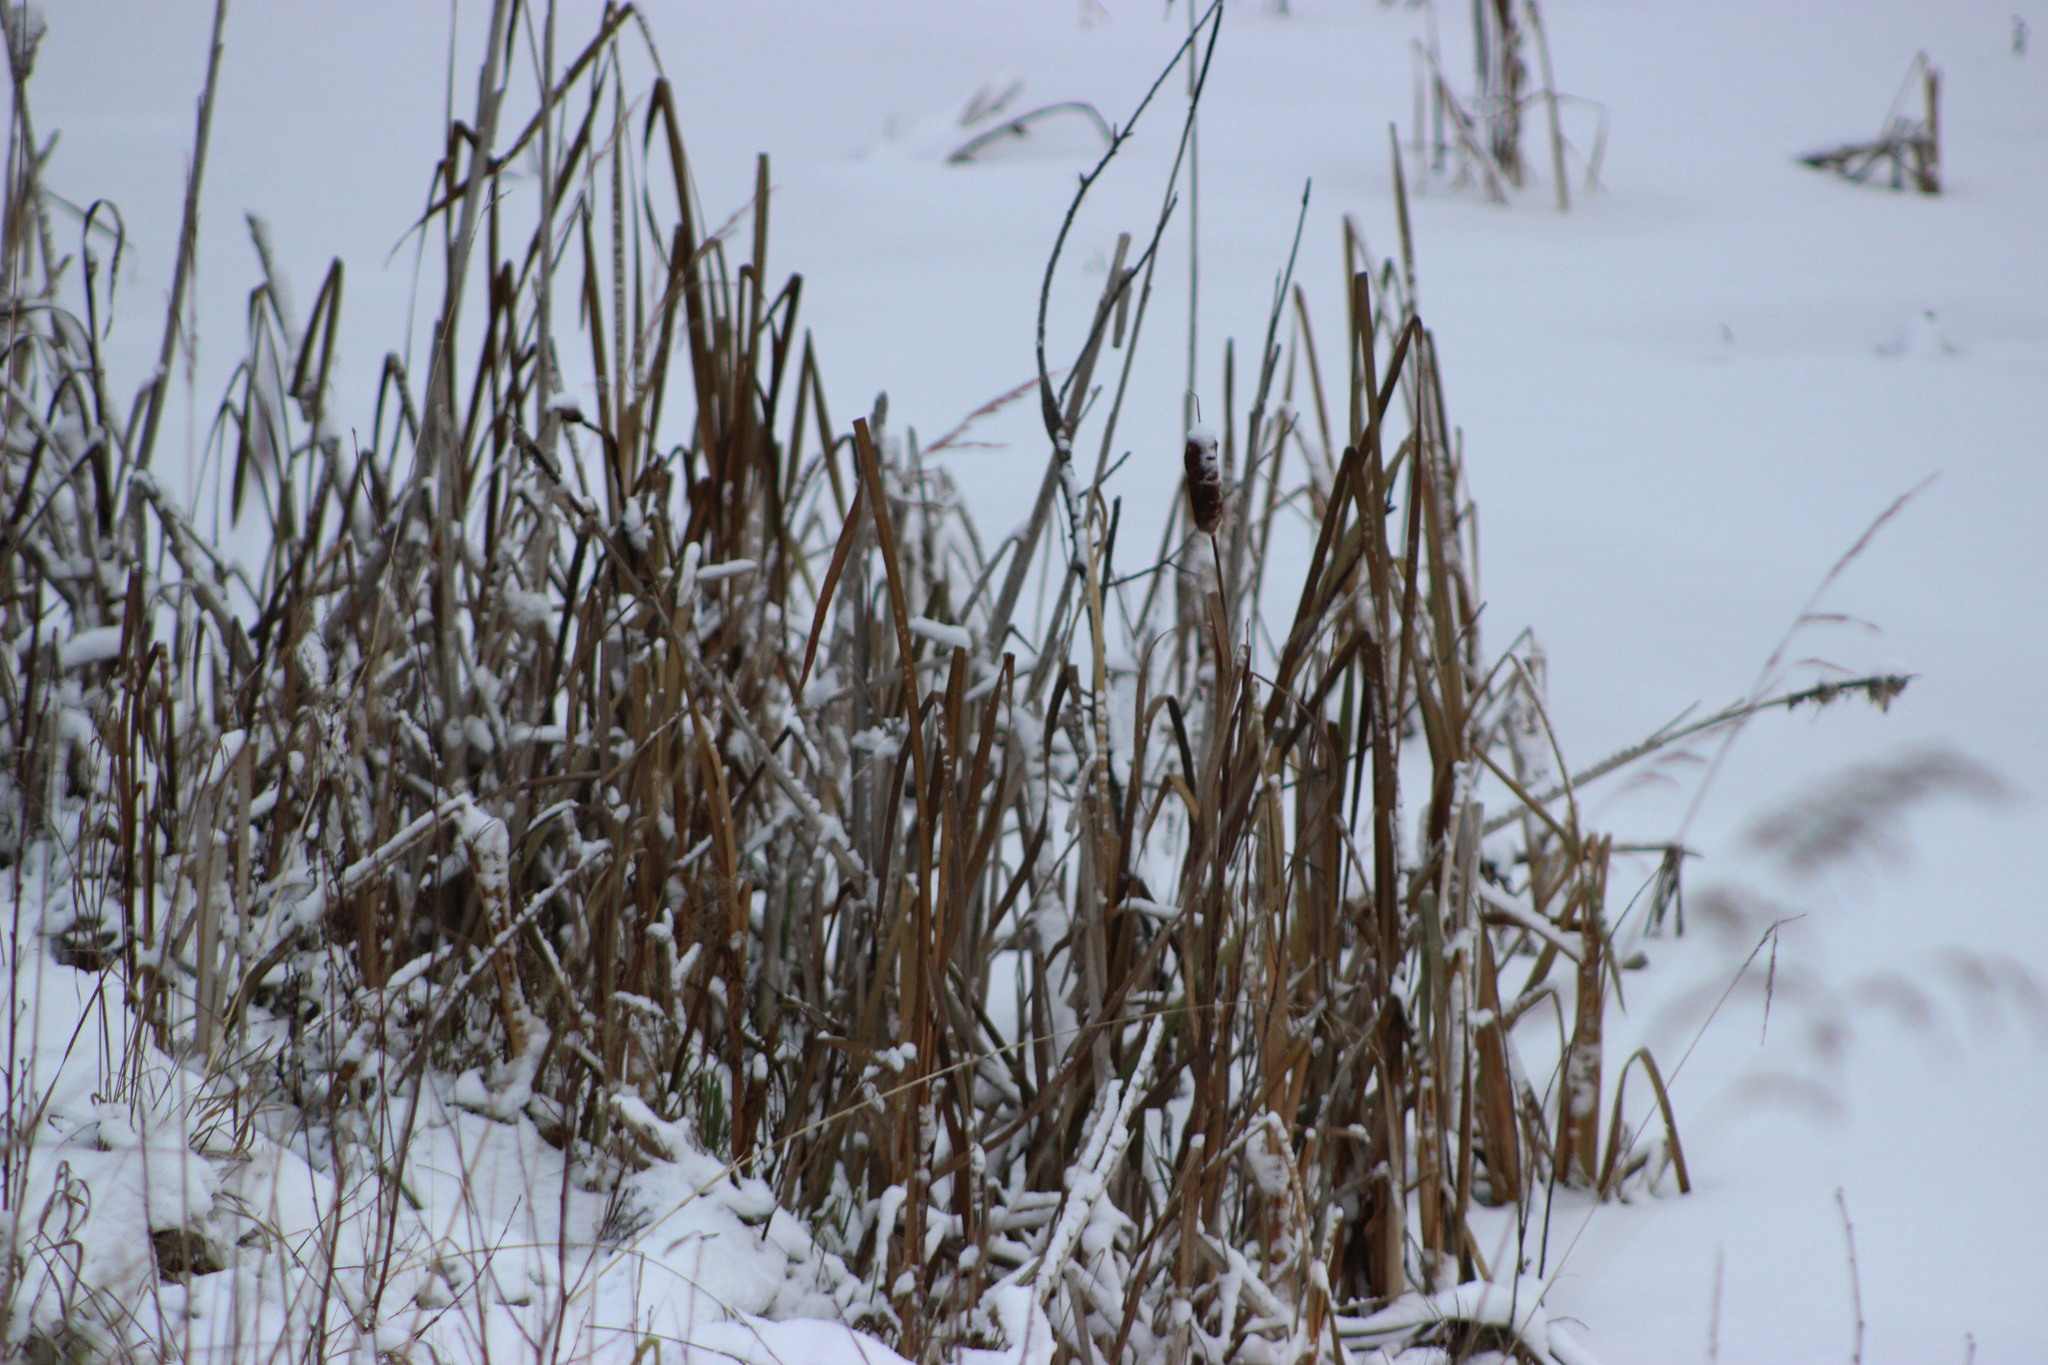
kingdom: Plantae
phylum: Tracheophyta
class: Liliopsida
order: Poales
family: Typhaceae
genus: Typha
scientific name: Typha latifolia
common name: Broadleaf cattail
